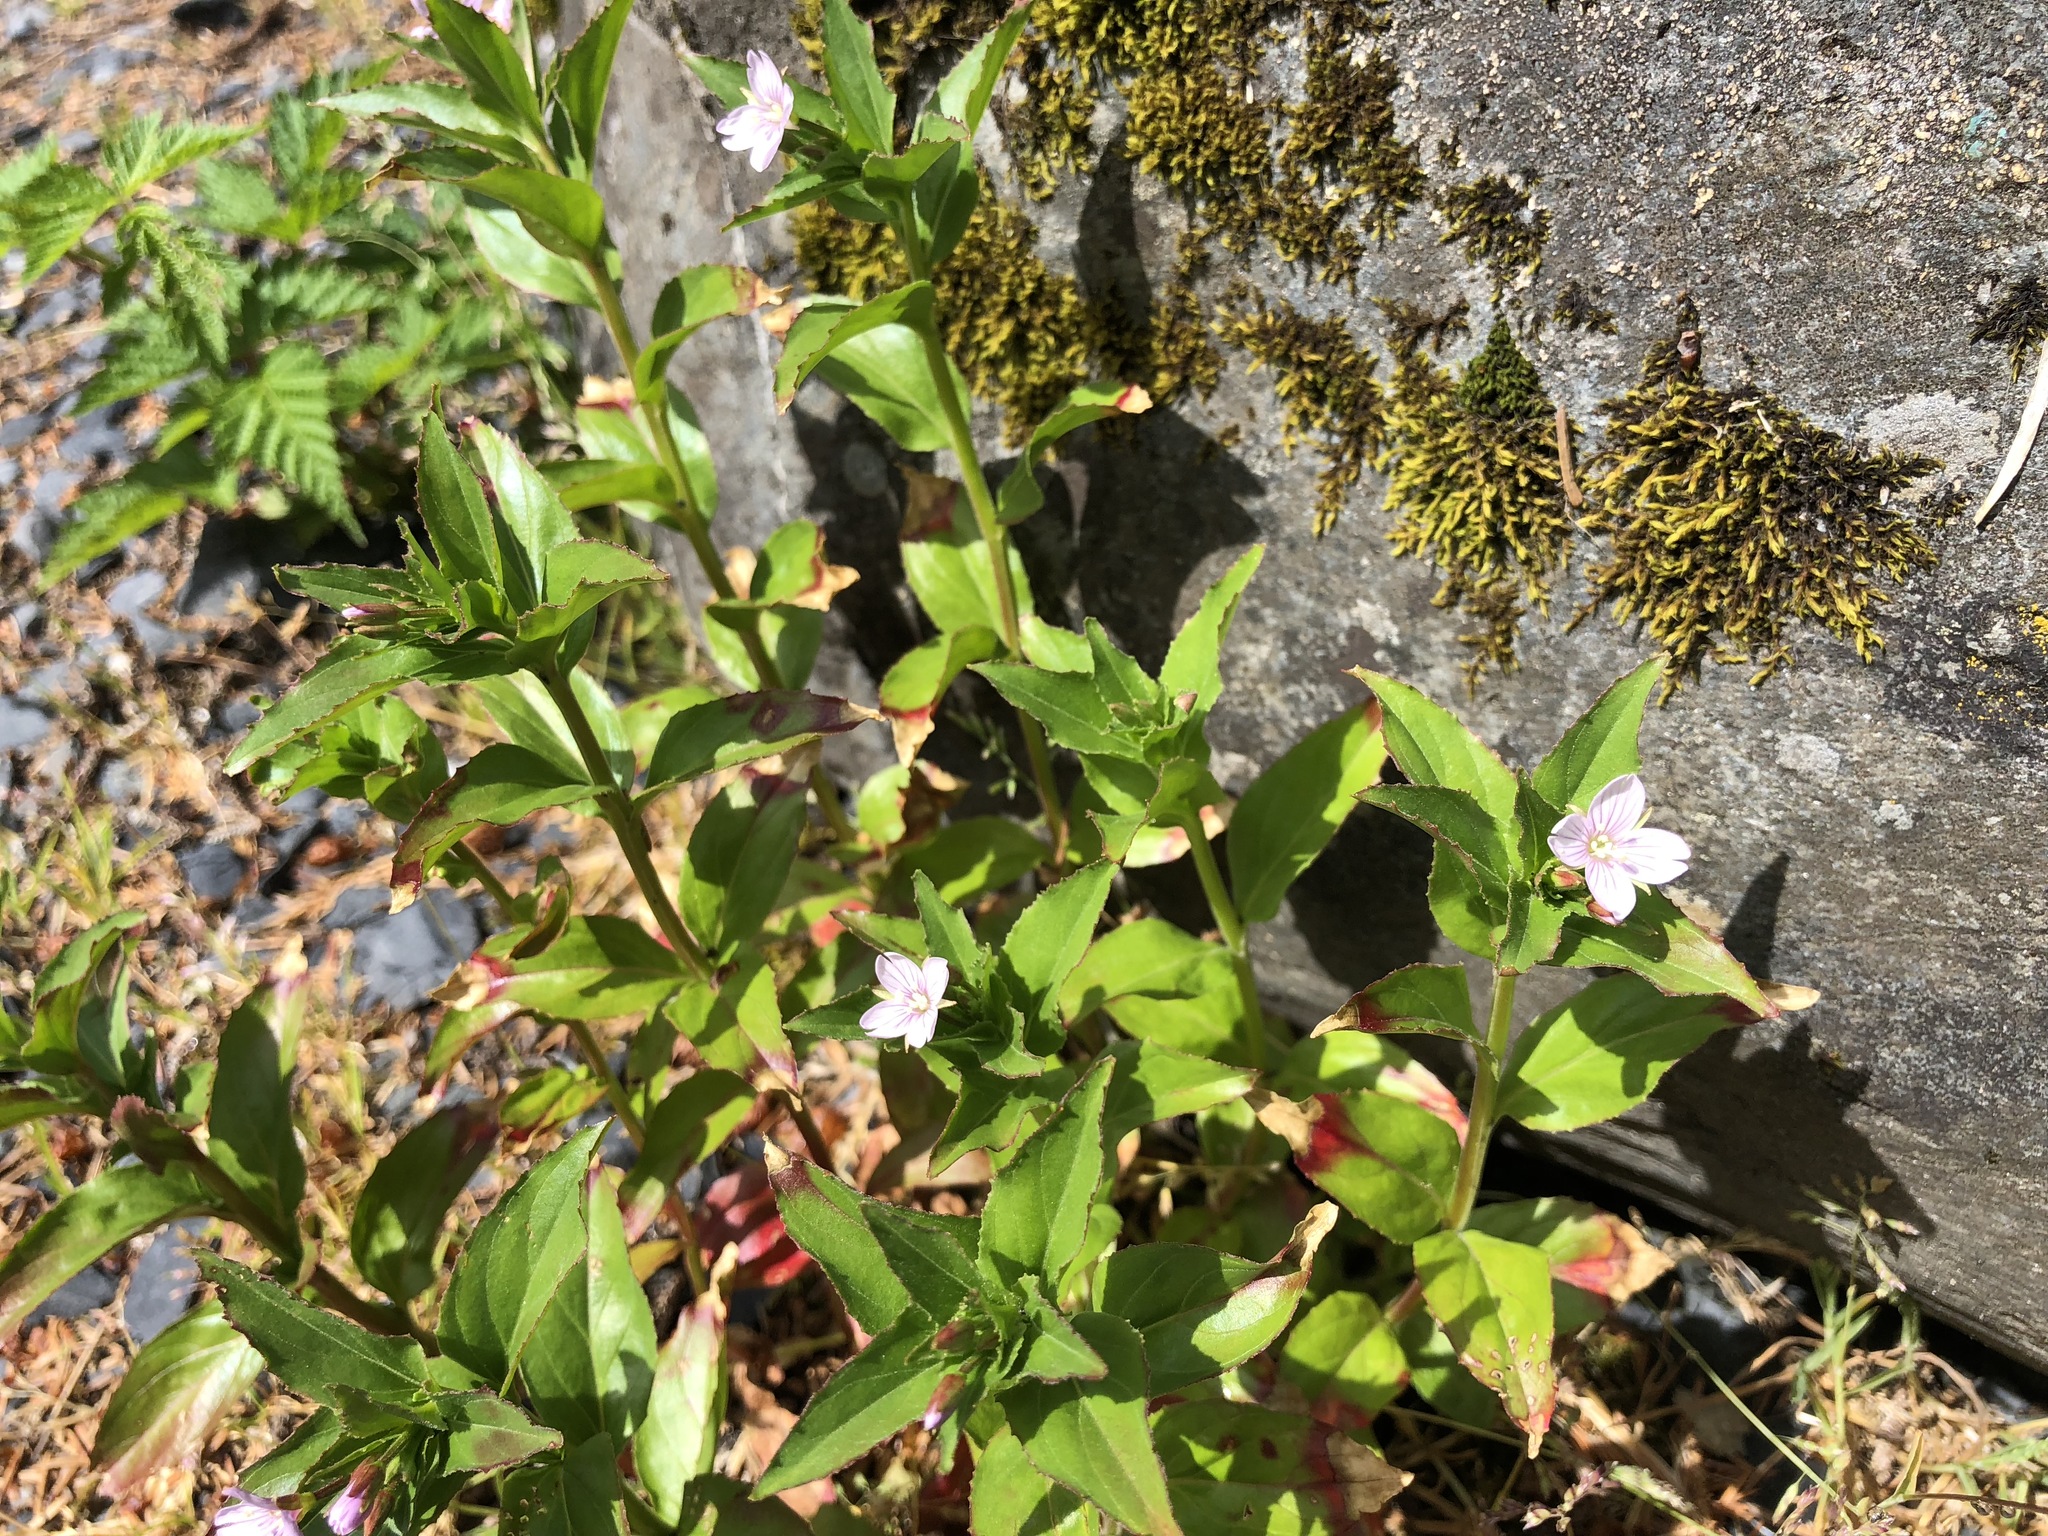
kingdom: Plantae
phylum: Tracheophyta
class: Magnoliopsida
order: Myrtales
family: Onagraceae
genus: Epilobium
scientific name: Epilobium ciliatum
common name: American willowherb
